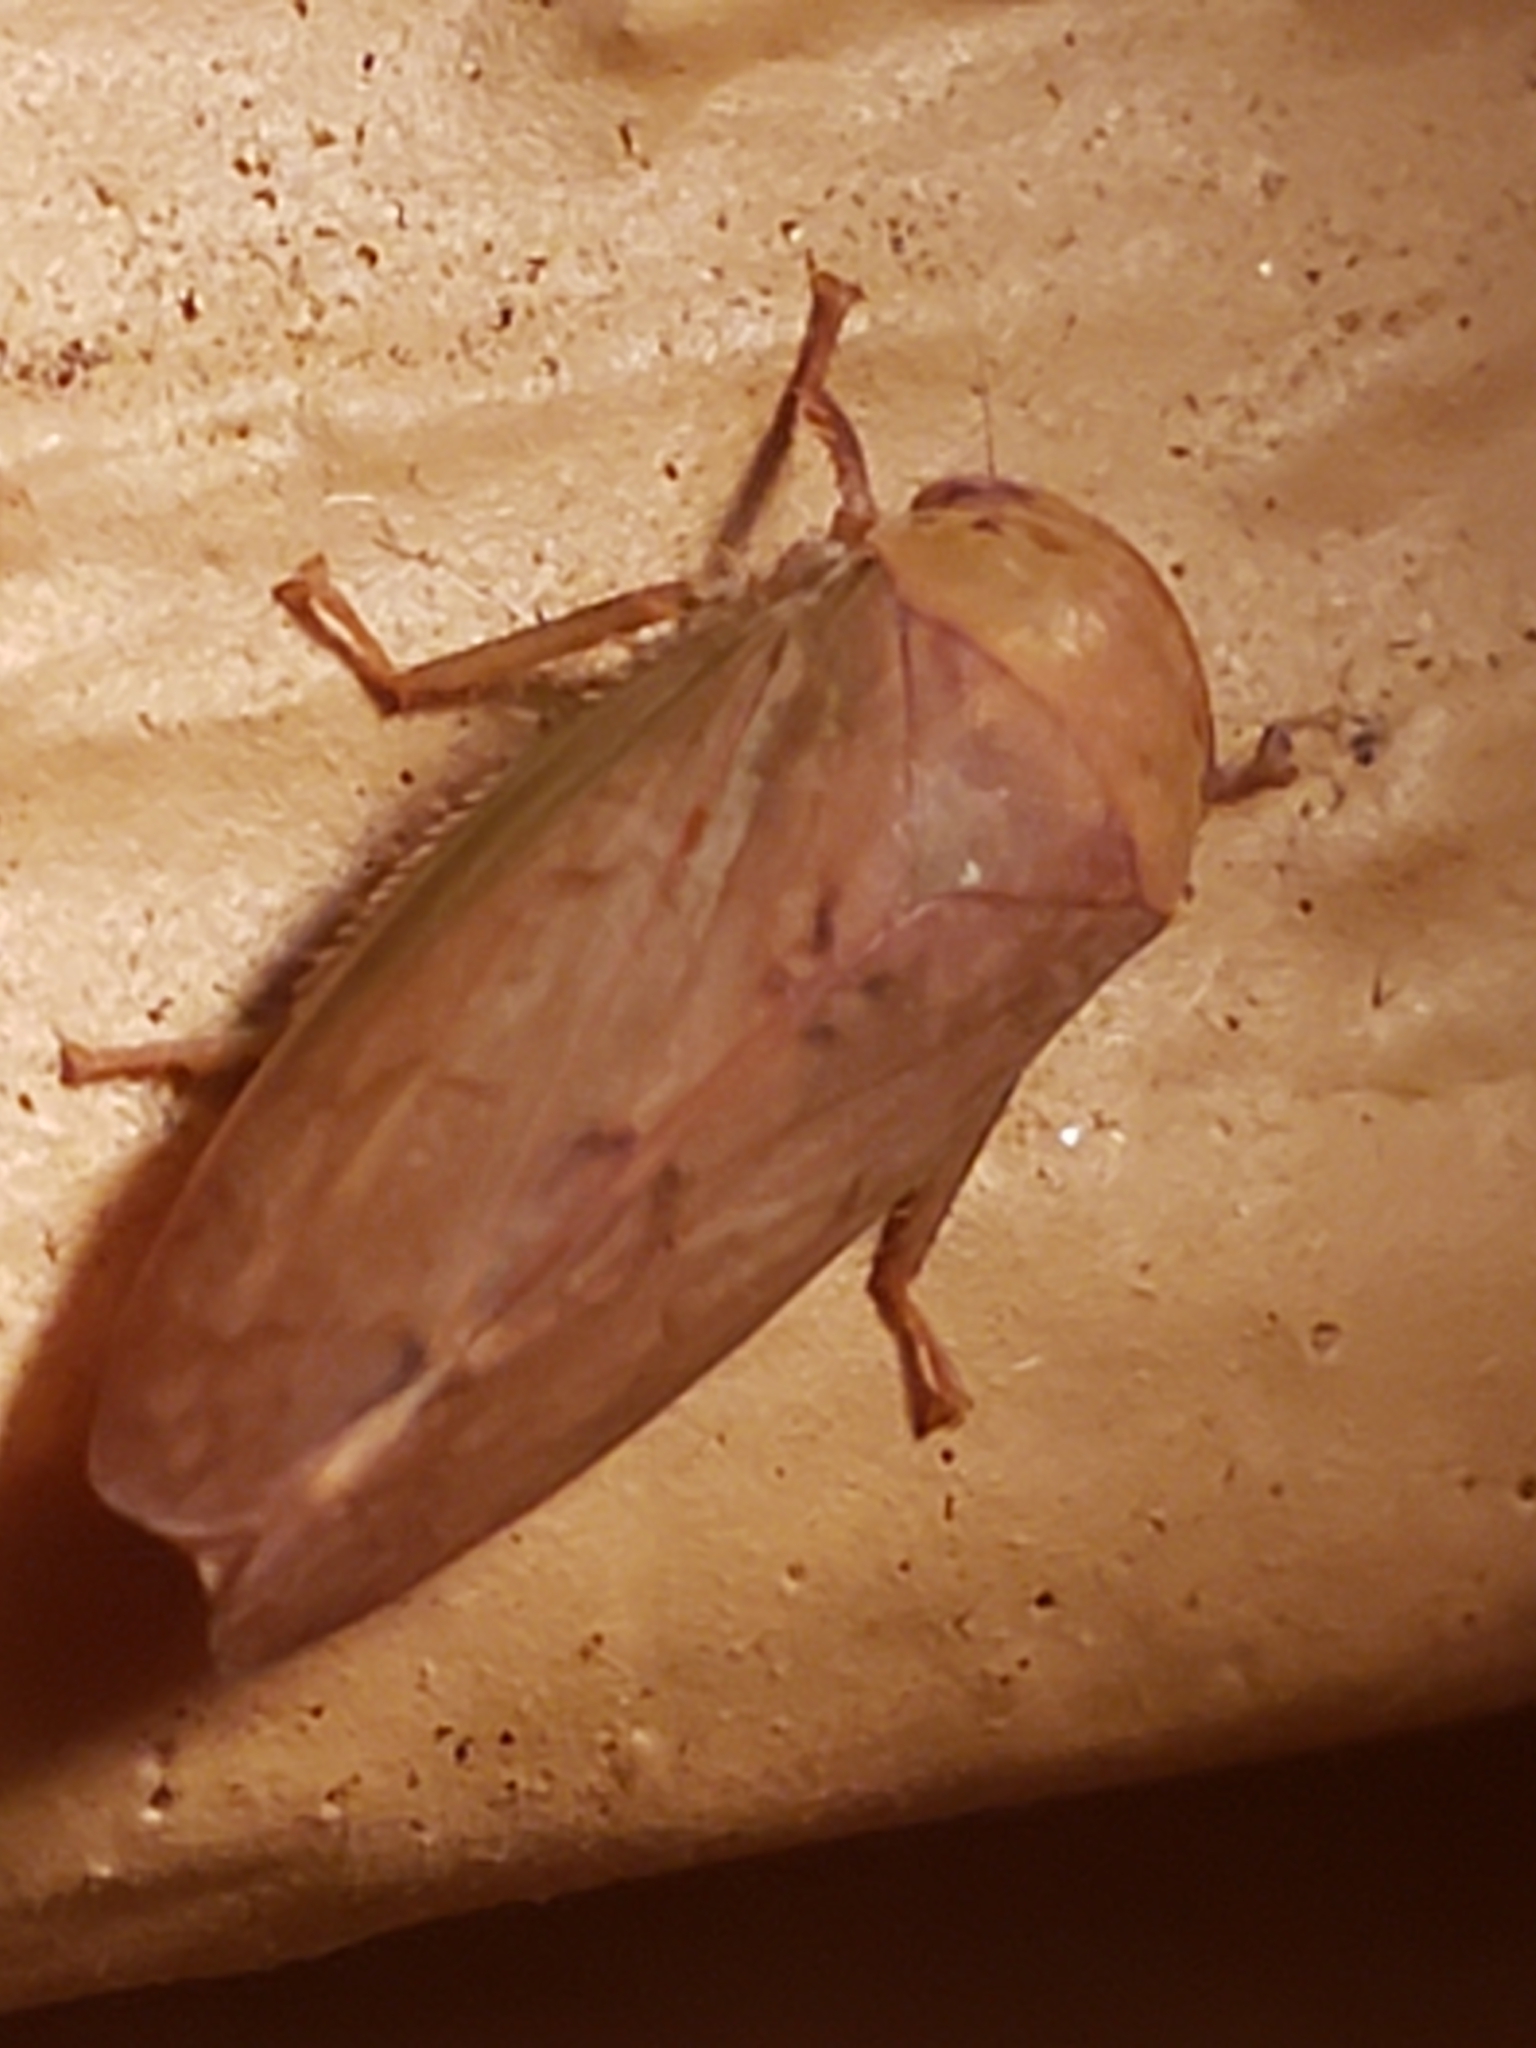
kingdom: Animalia
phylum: Arthropoda
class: Insecta
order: Hemiptera
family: Cicadellidae
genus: Polana
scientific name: Polana quadrinotata
